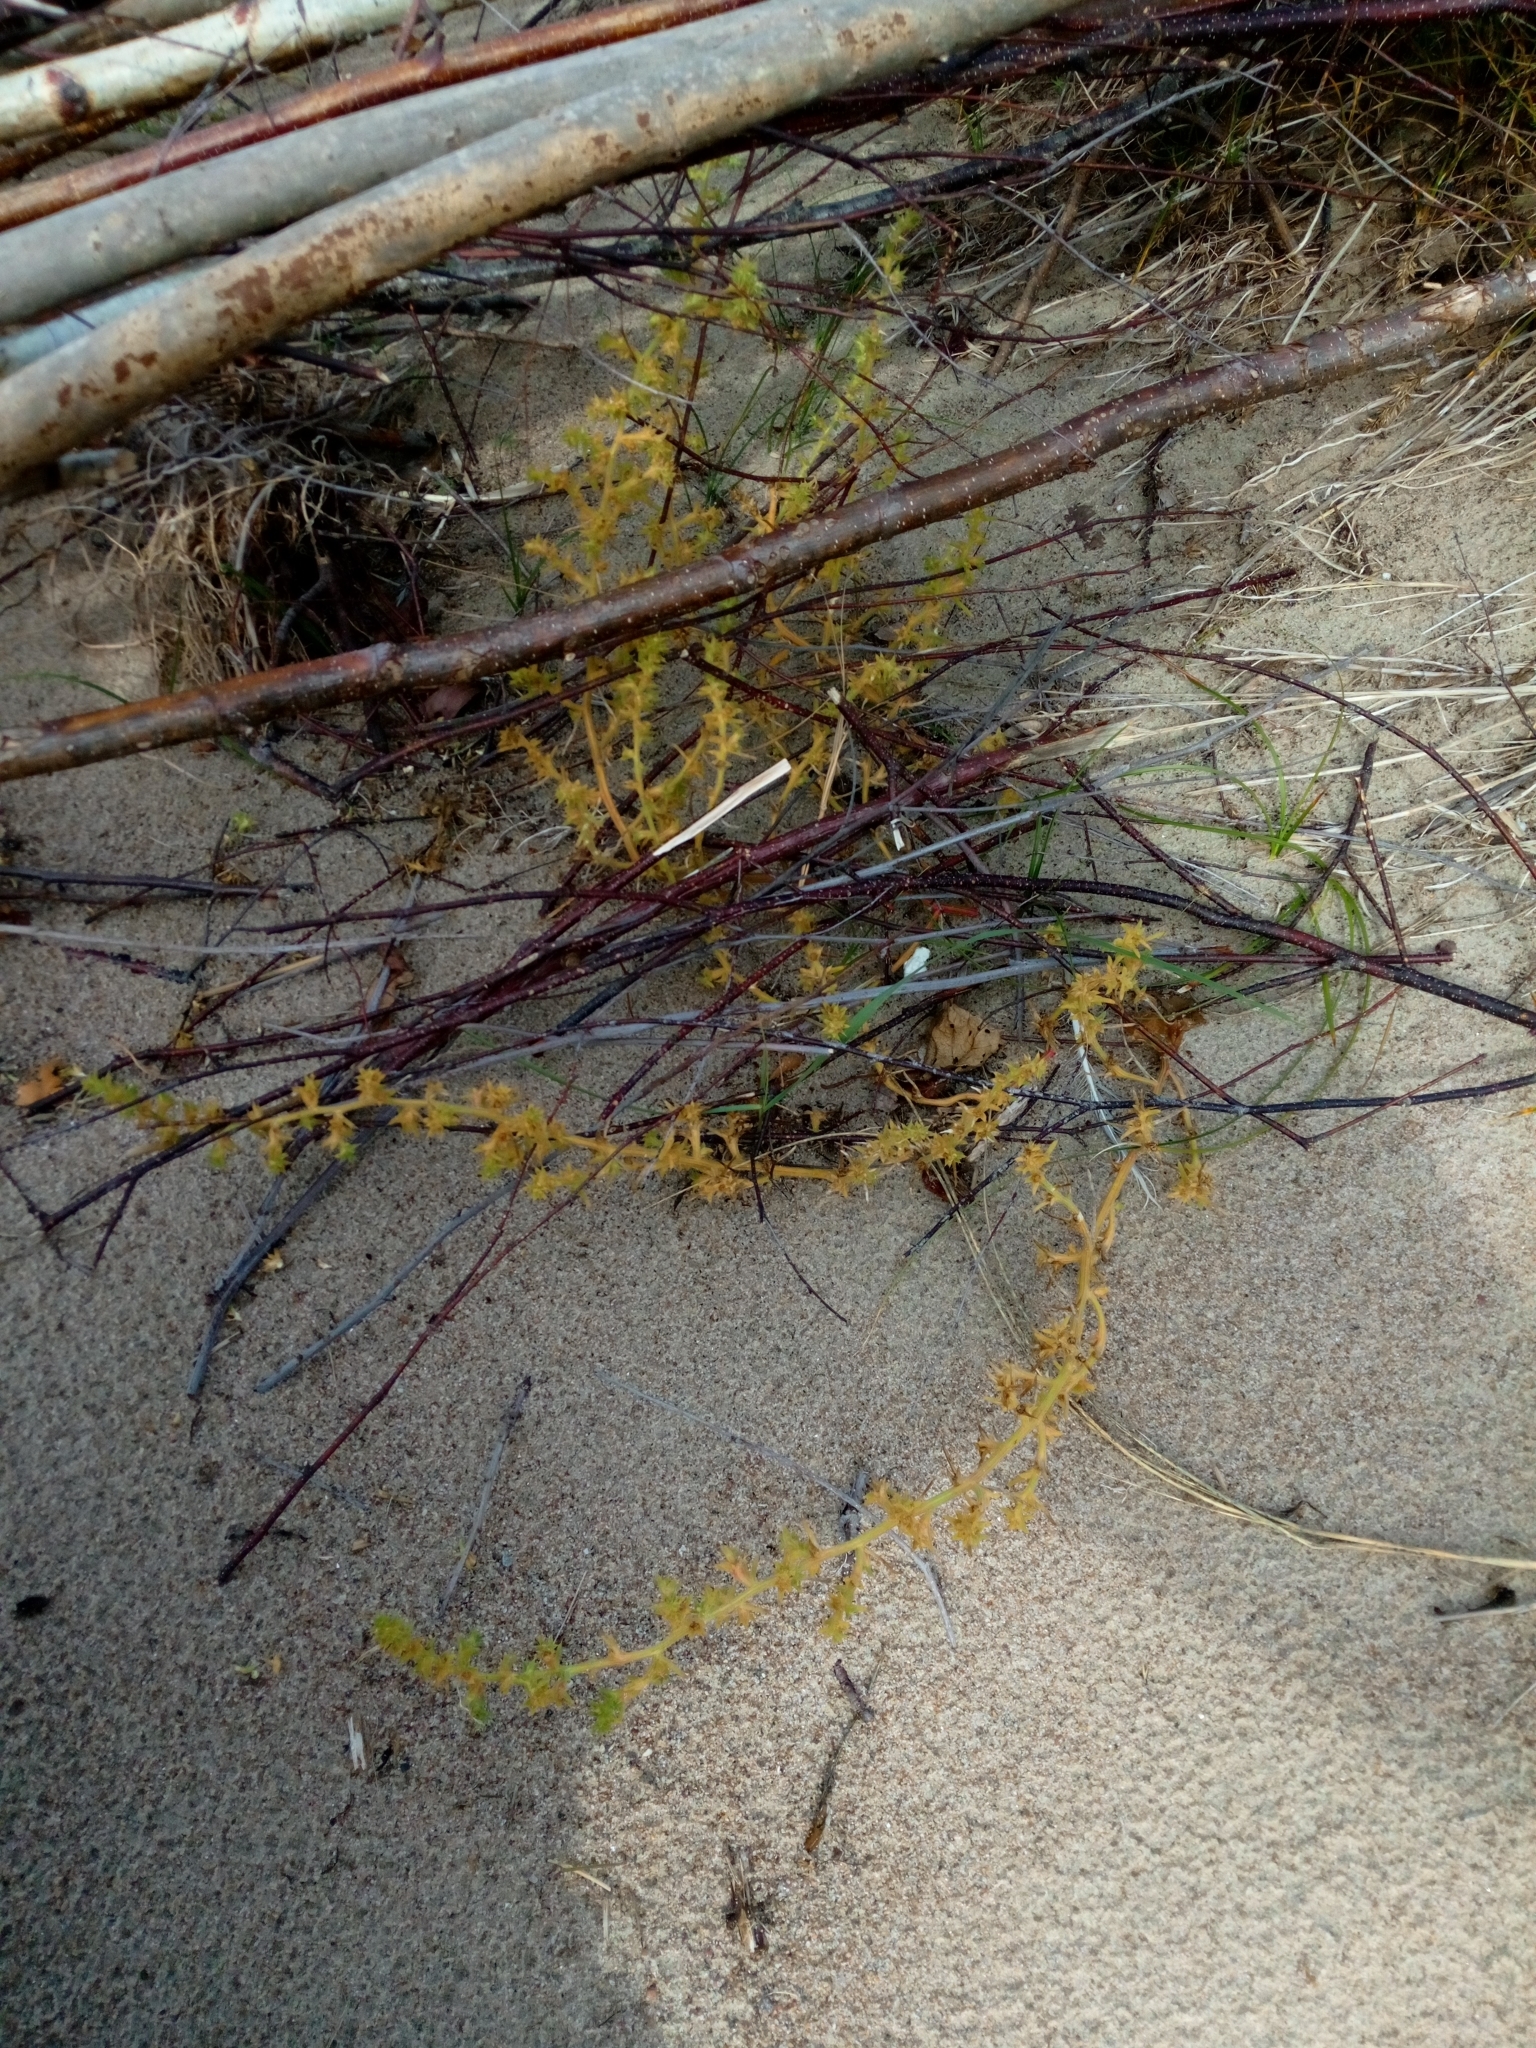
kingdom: Plantae
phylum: Tracheophyta
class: Magnoliopsida
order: Caryophyllales
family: Amaranthaceae
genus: Salsola
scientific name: Salsola kali
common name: Saltwort
